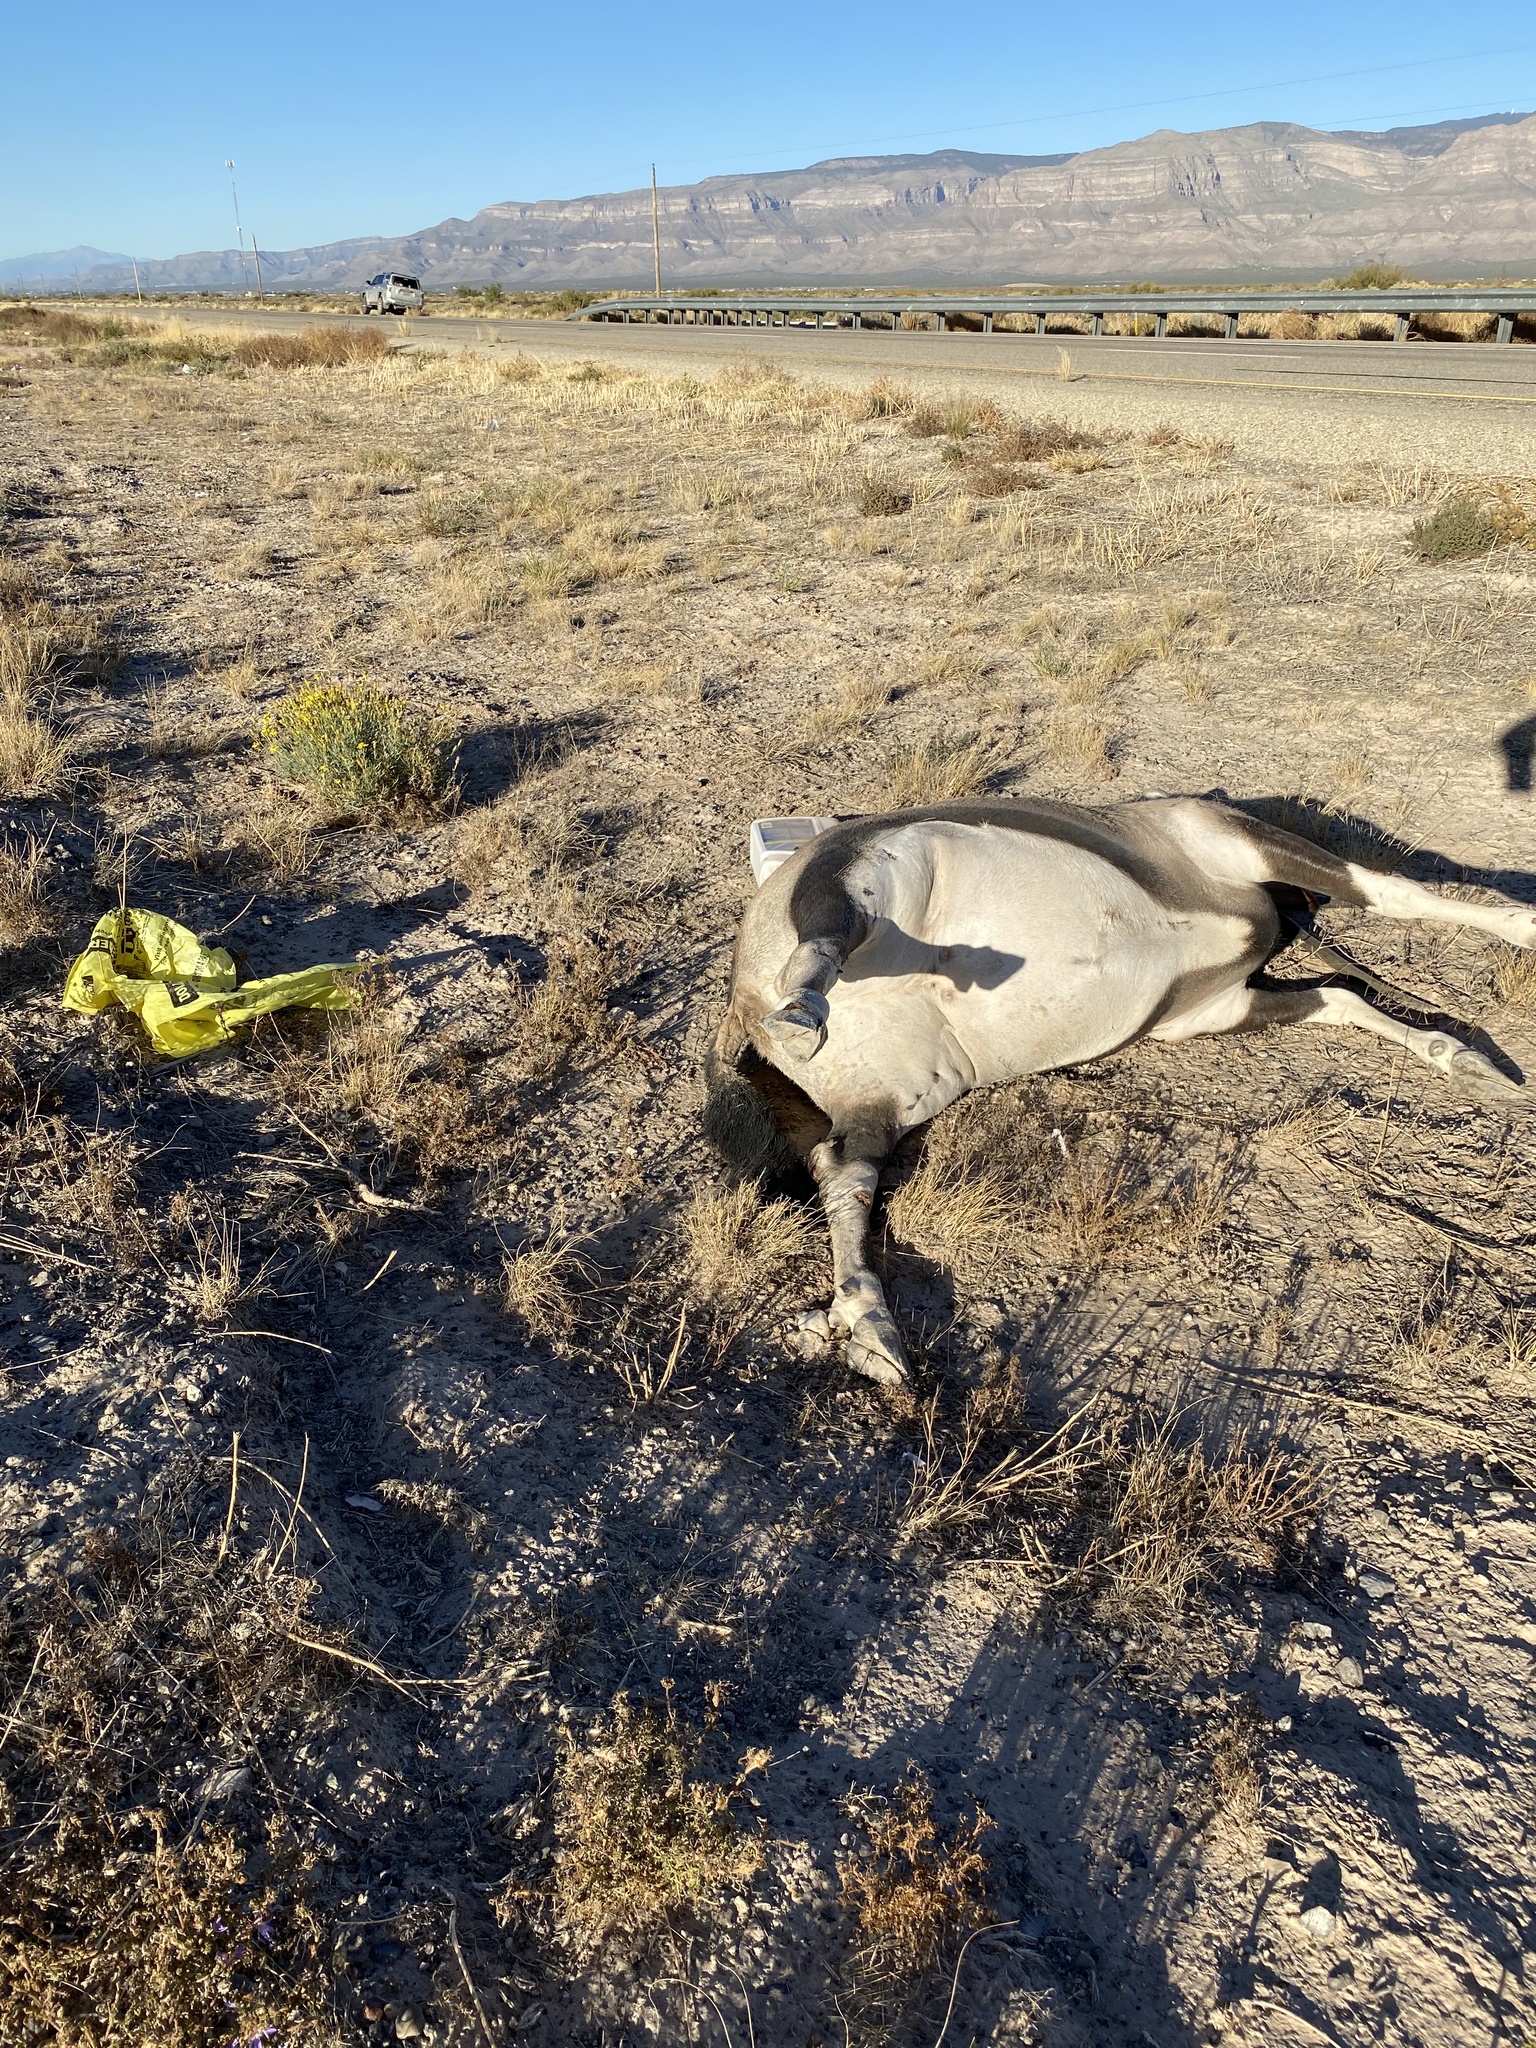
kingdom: Animalia
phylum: Chordata
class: Mammalia
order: Artiodactyla
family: Bovidae
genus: Oryx
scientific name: Oryx gazella
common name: Gemsbok
